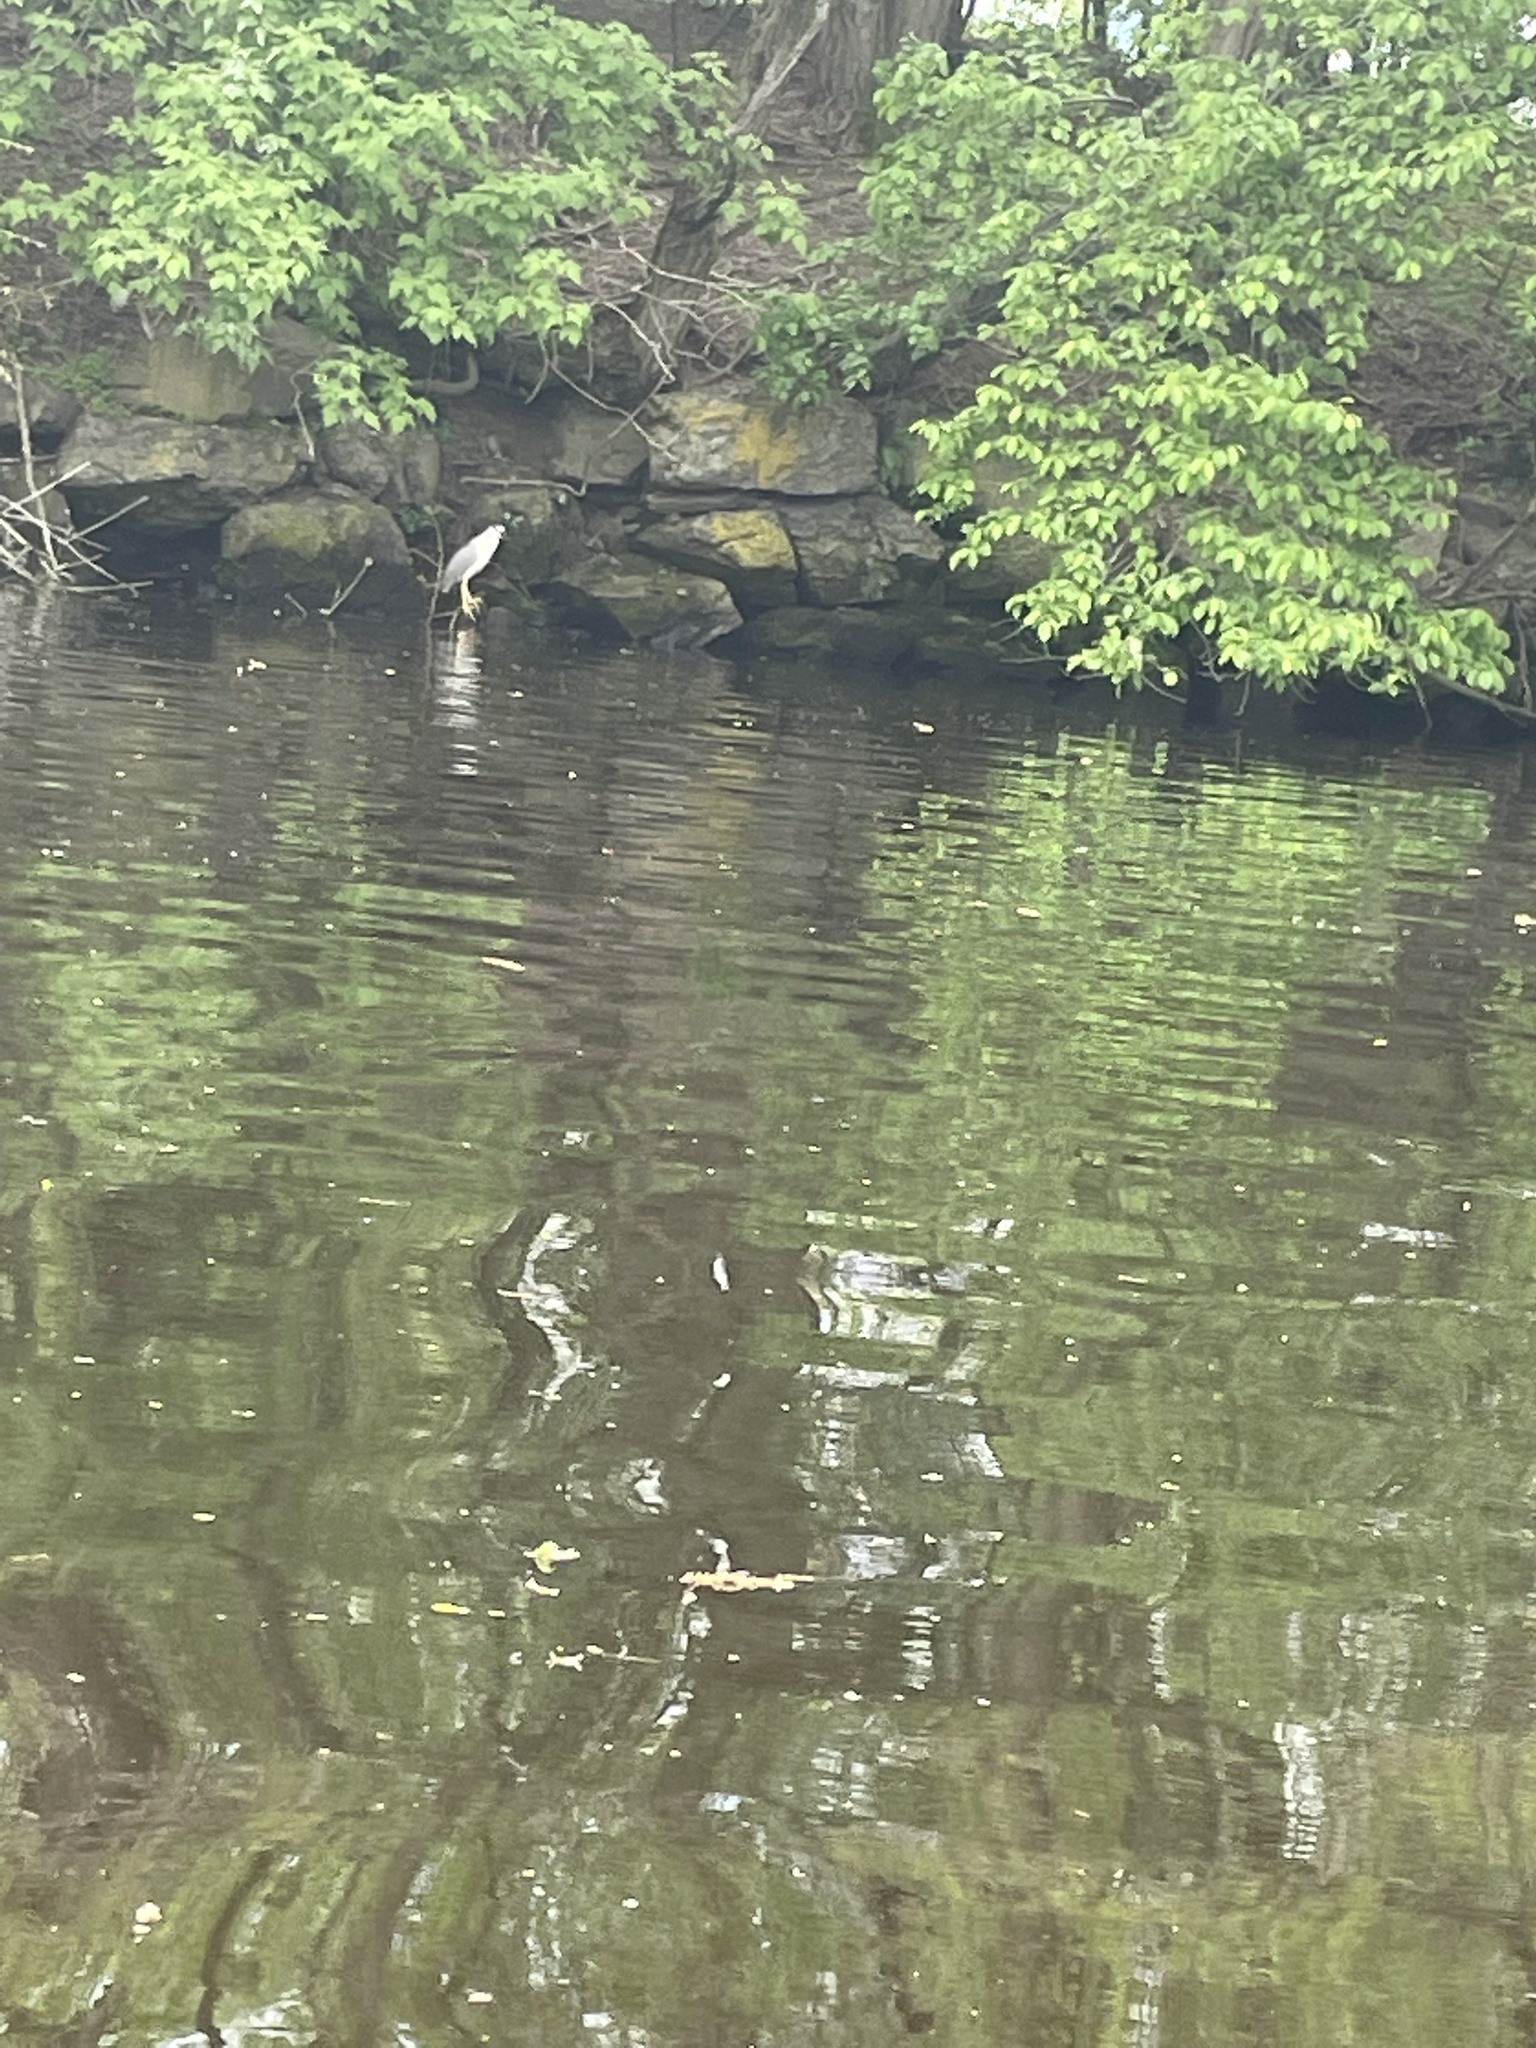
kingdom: Animalia
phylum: Chordata
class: Aves
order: Pelecaniformes
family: Ardeidae
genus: Nycticorax
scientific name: Nycticorax nycticorax
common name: Black-crowned night heron
